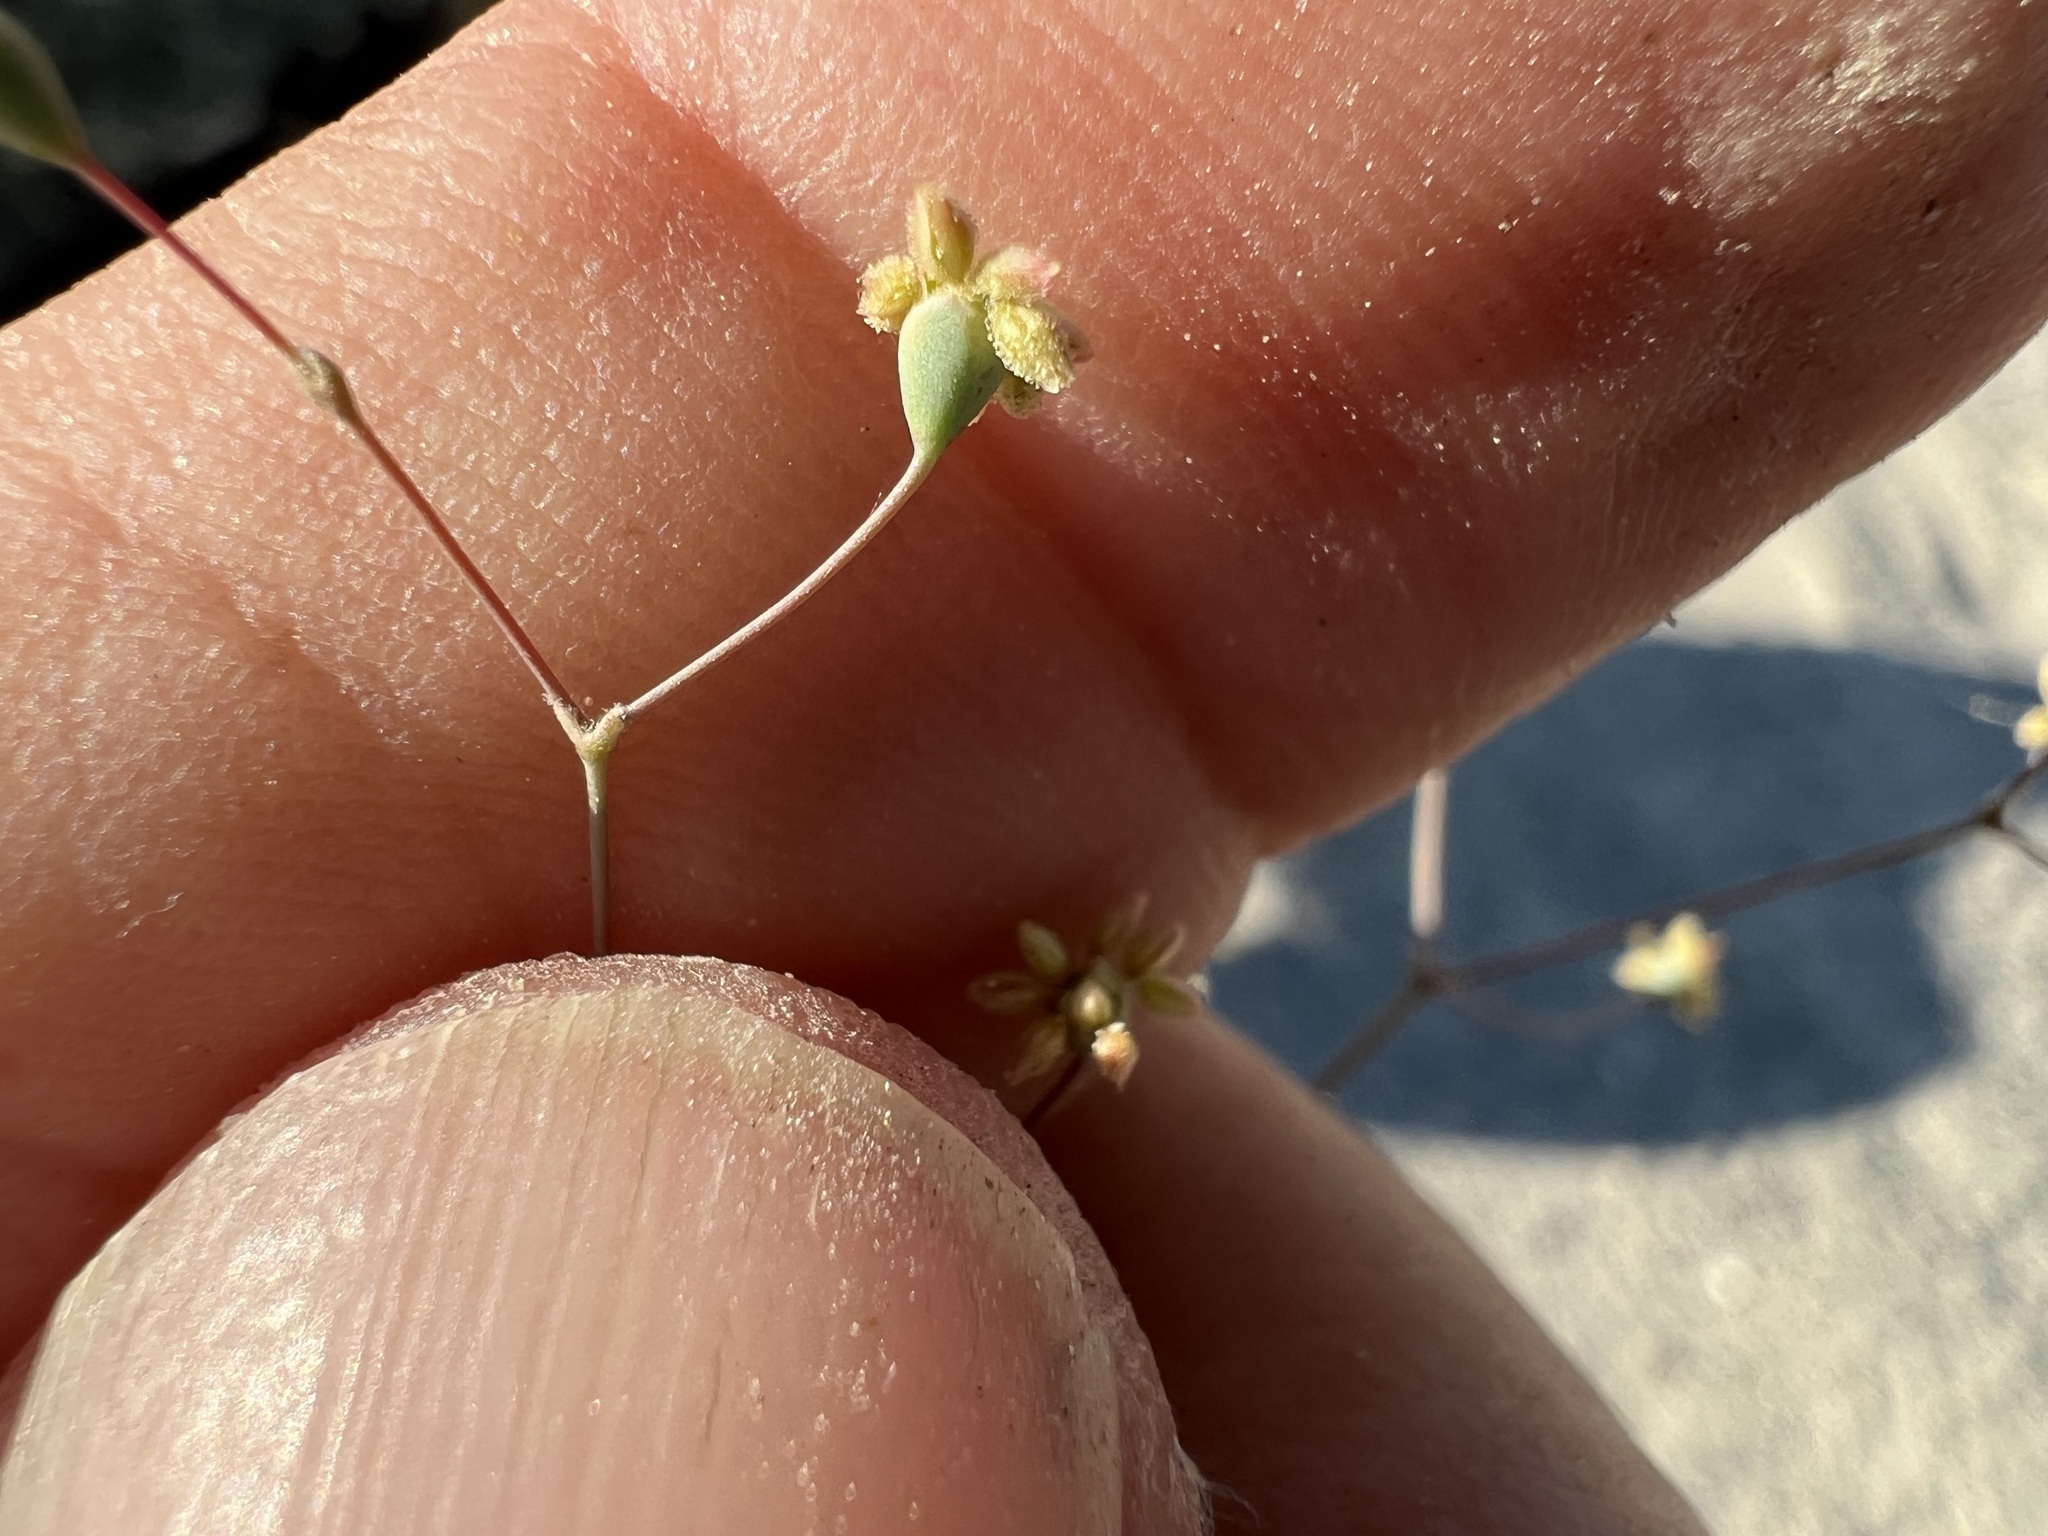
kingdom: Plantae
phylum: Tracheophyta
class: Magnoliopsida
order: Caryophyllales
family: Polygonaceae
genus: Eriogonum
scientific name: Eriogonum pusillum
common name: Yellow turbans
